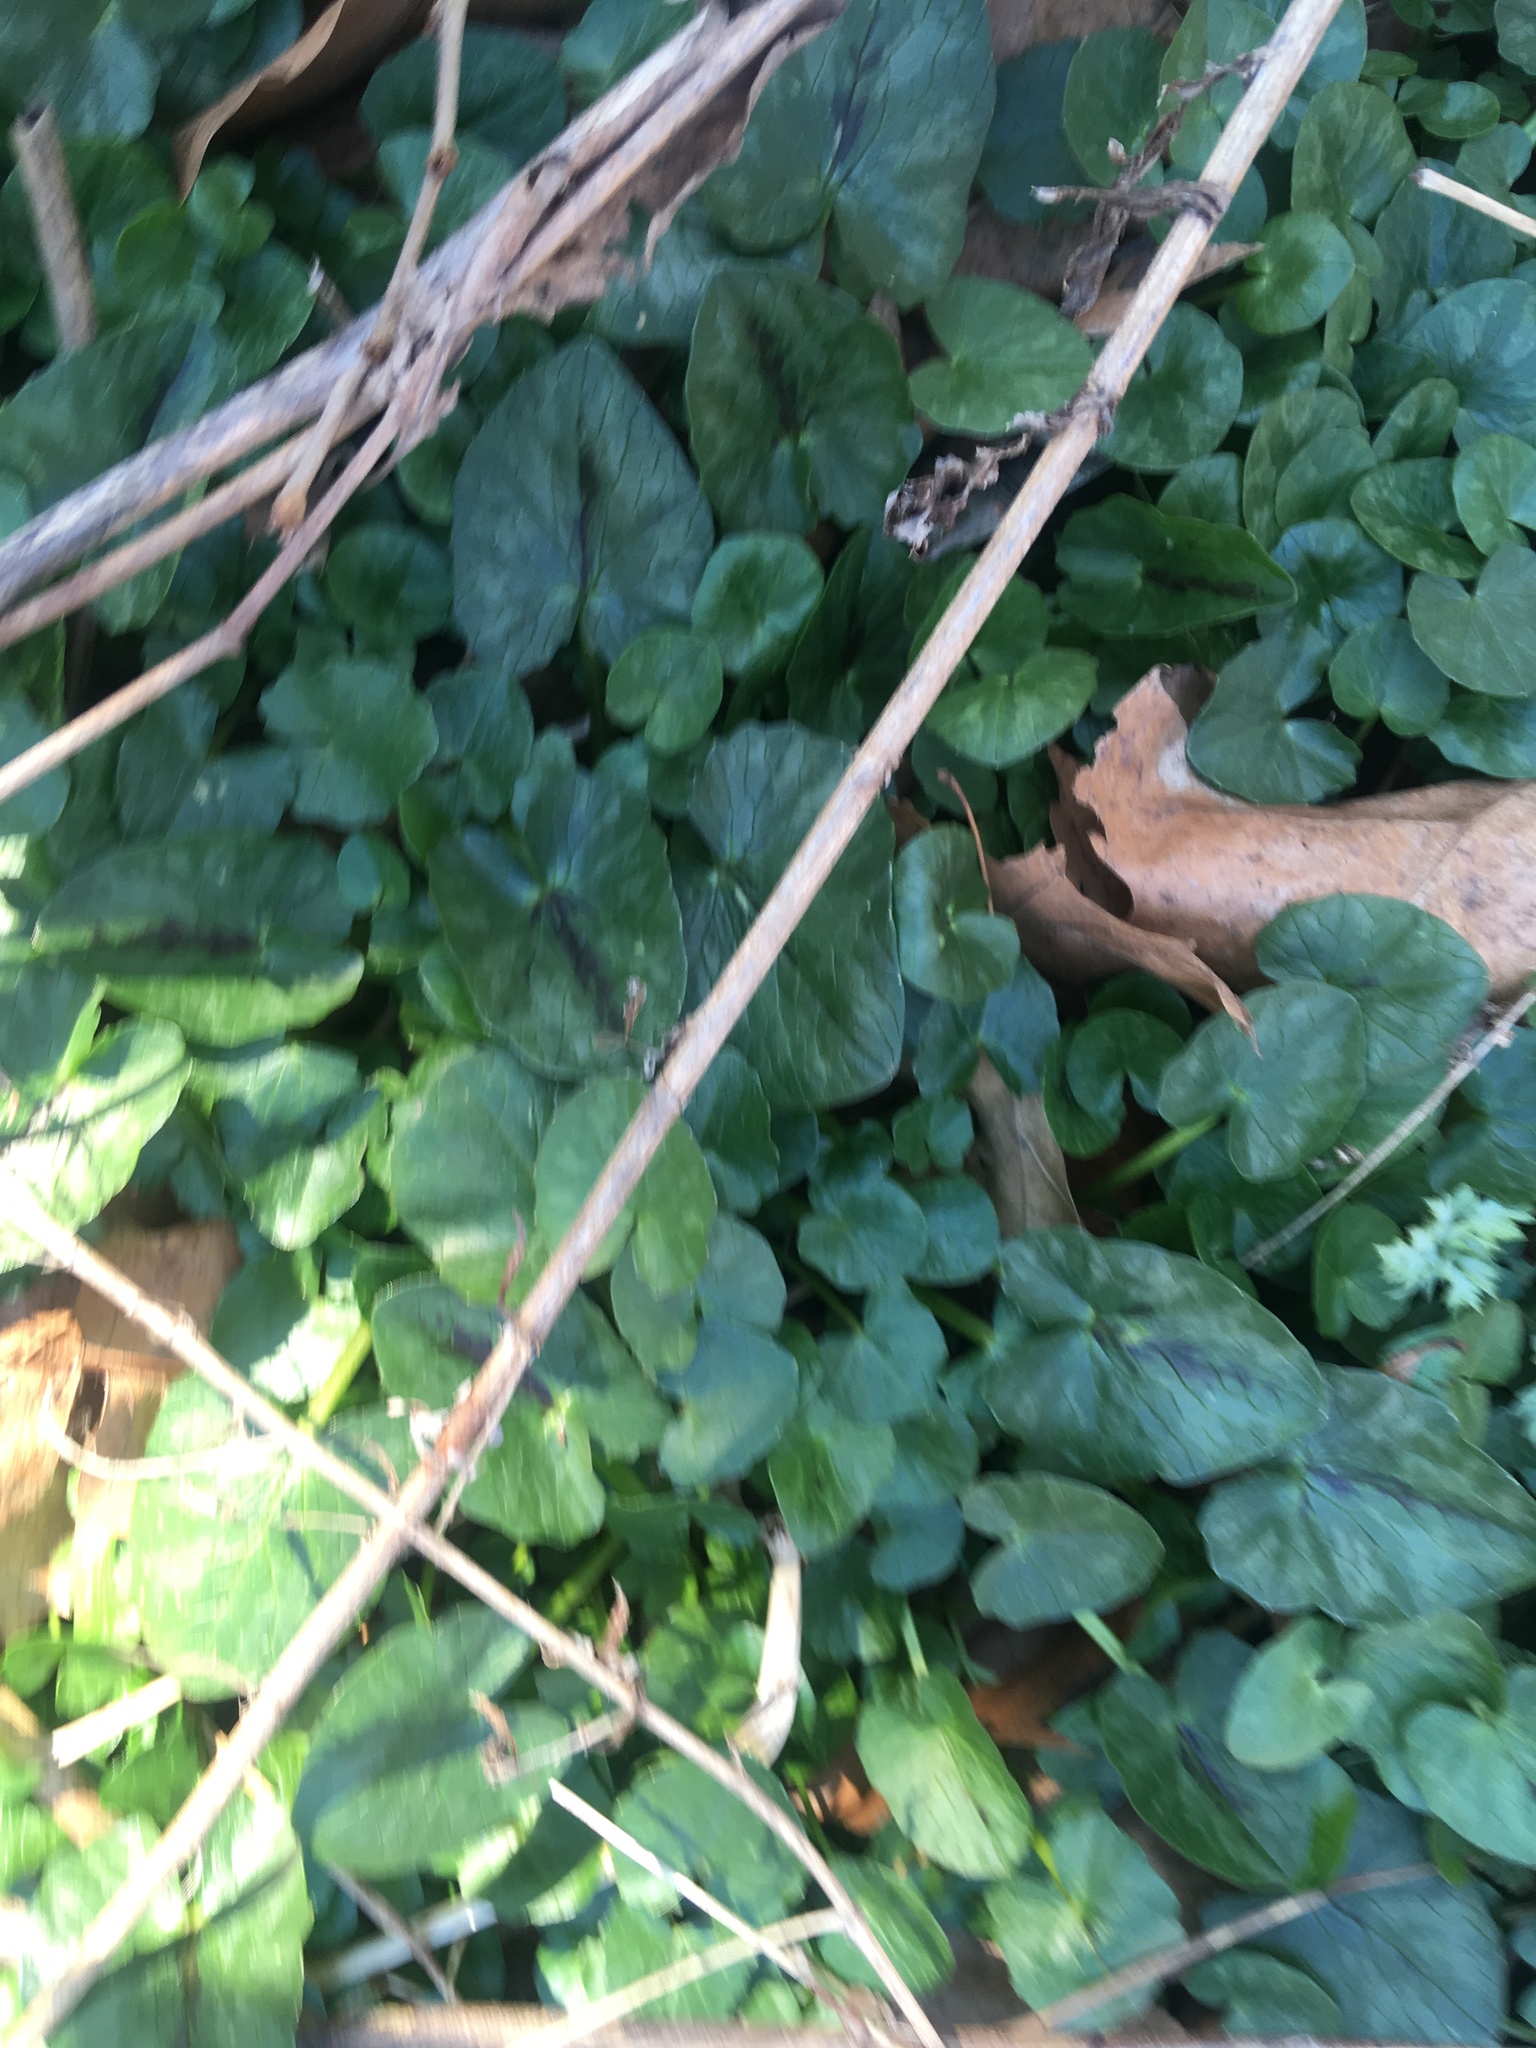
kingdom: Plantae
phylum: Tracheophyta
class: Magnoliopsida
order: Ranunculales
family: Ranunculaceae
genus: Ficaria
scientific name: Ficaria verna
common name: Lesser celandine
